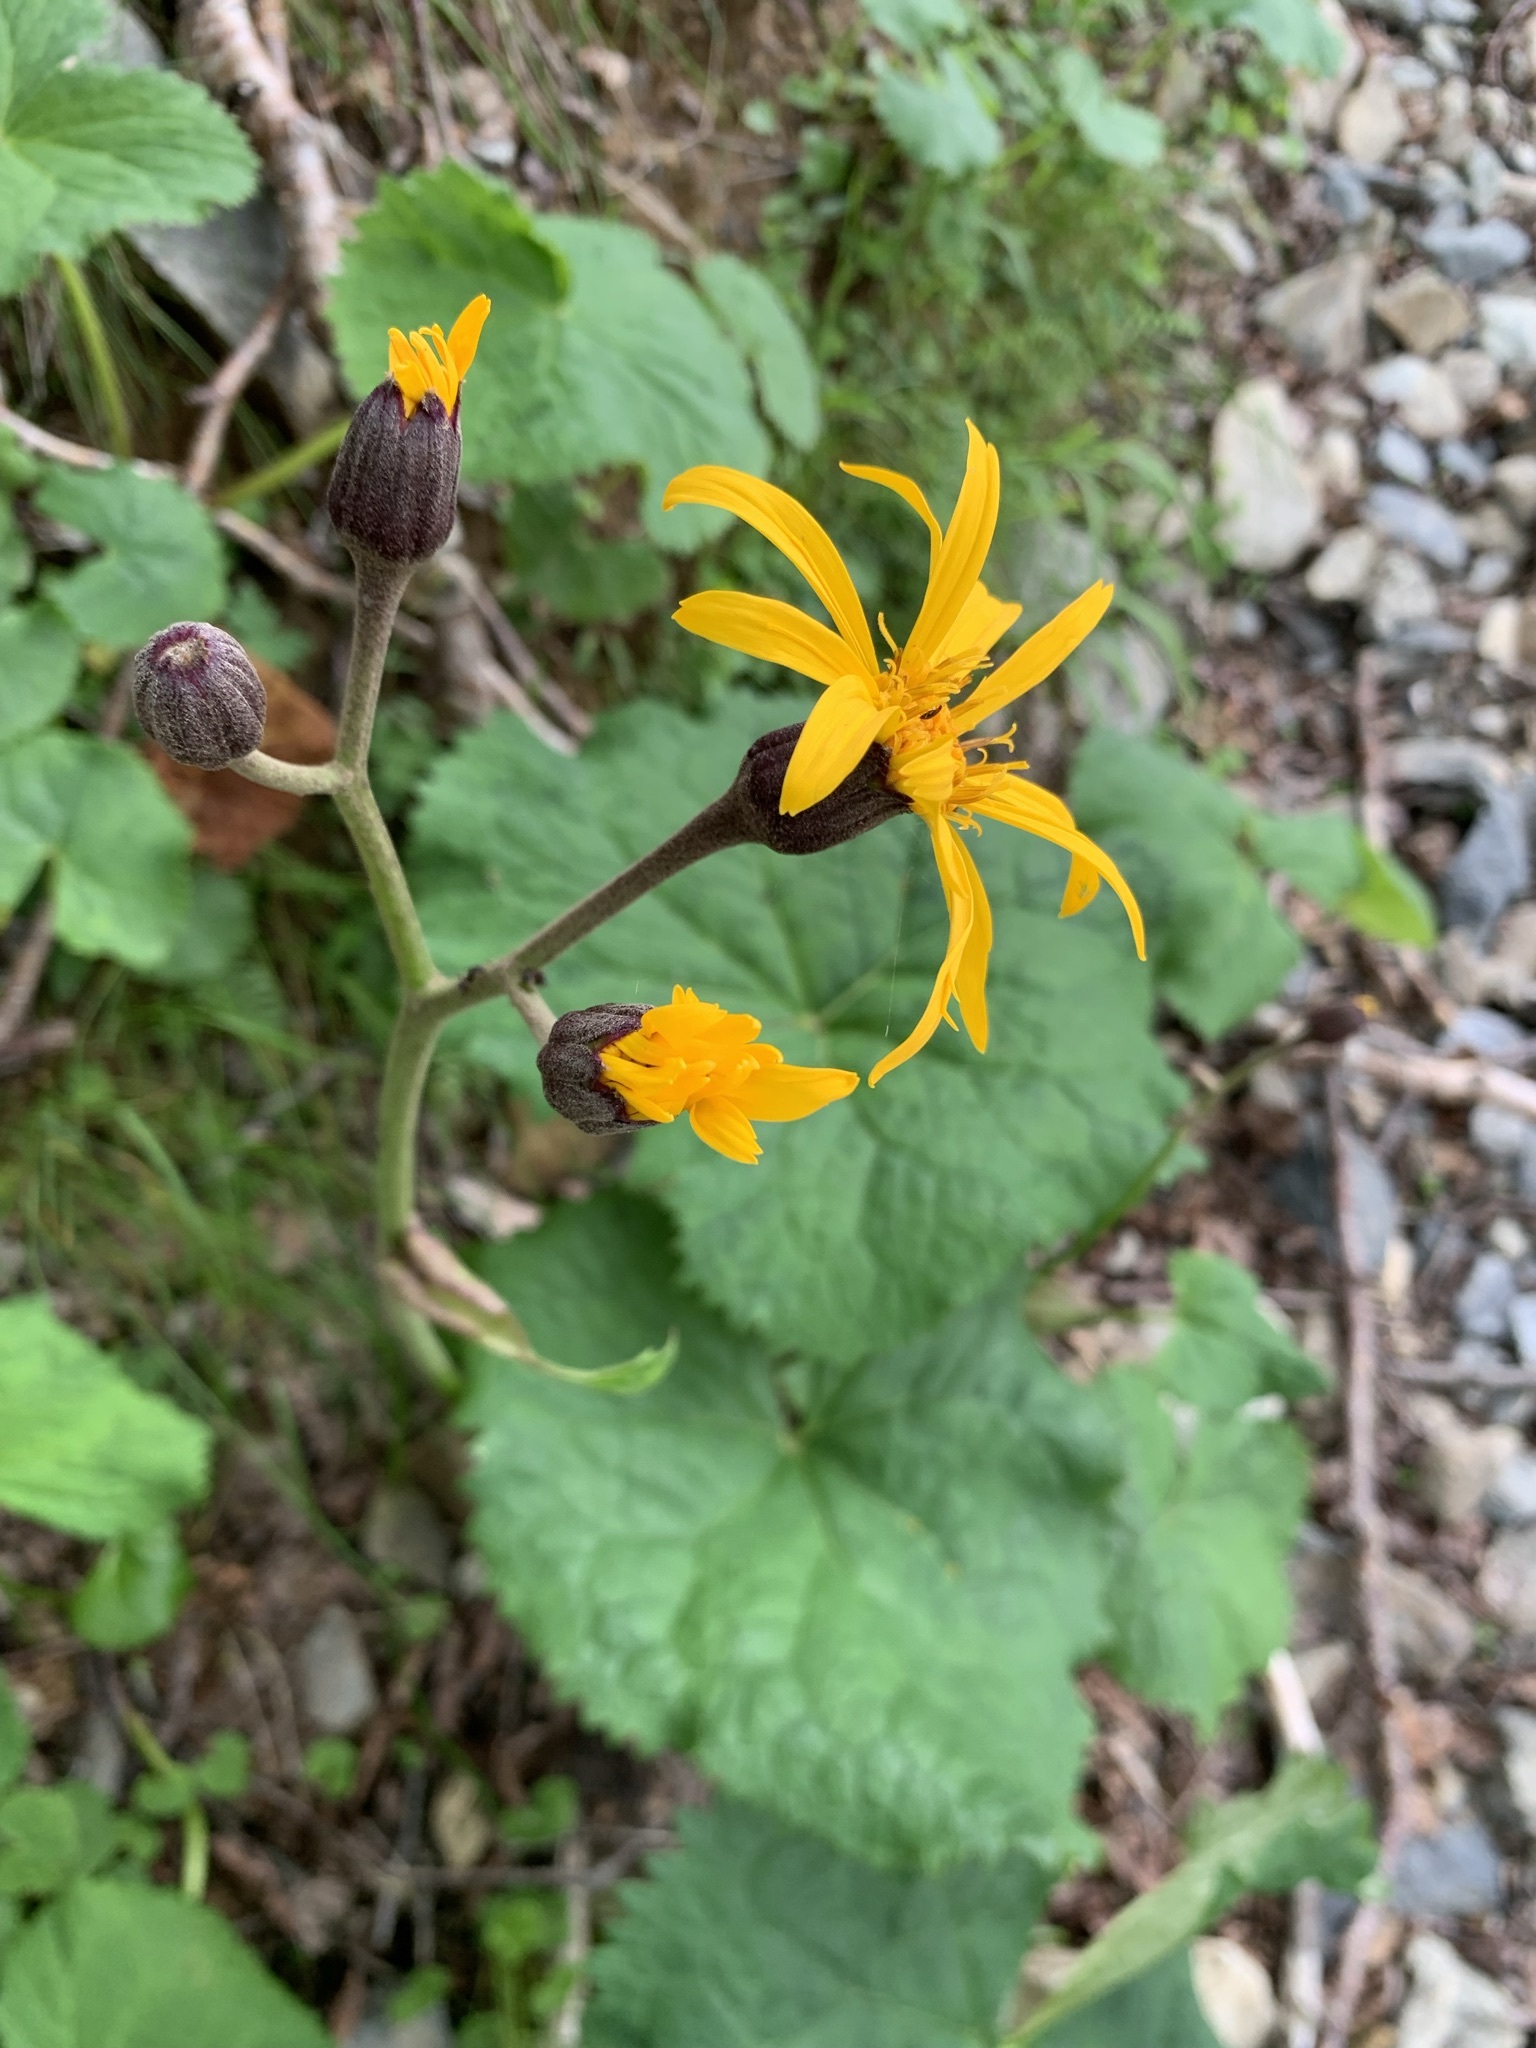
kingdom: Plantae
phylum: Tracheophyta
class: Magnoliopsida
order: Asterales
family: Asteraceae
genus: Ligularia
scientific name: Ligularia dentata
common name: Leopardplant
